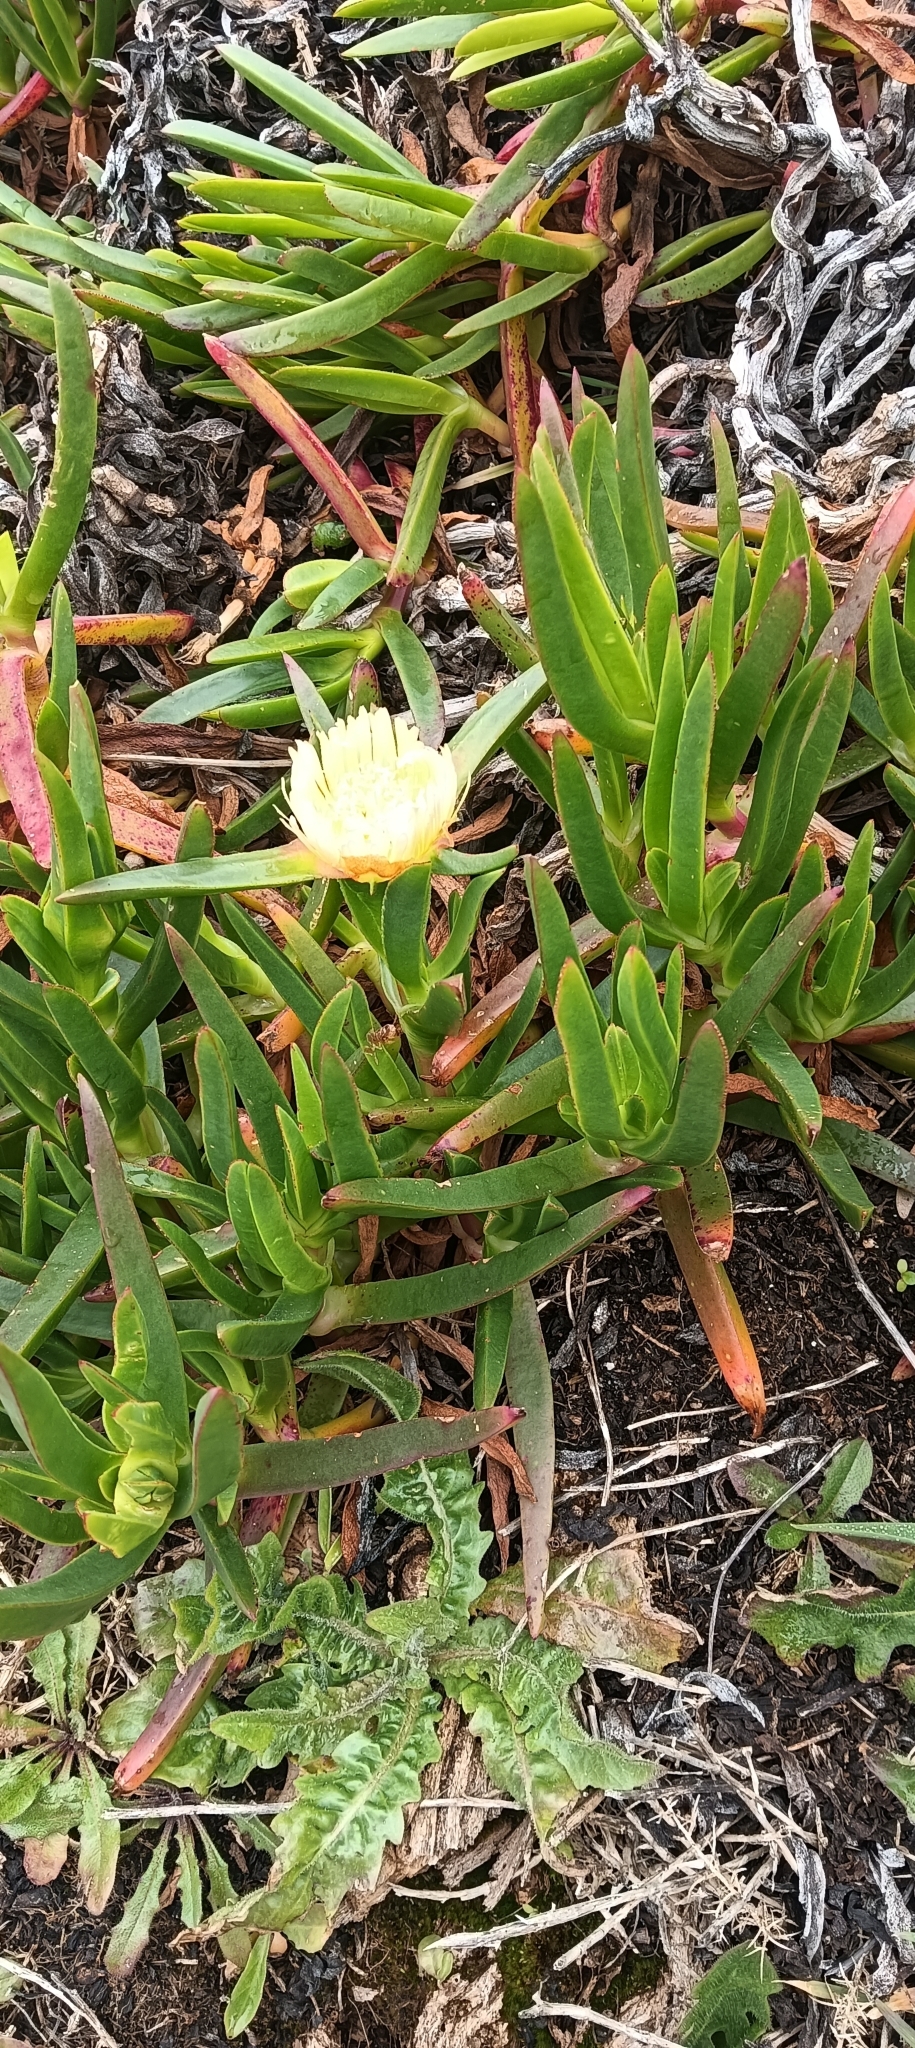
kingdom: Plantae
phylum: Tracheophyta
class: Magnoliopsida
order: Caryophyllales
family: Aizoaceae
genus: Carpobrotus
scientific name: Carpobrotus edulis
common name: Hottentot-fig
